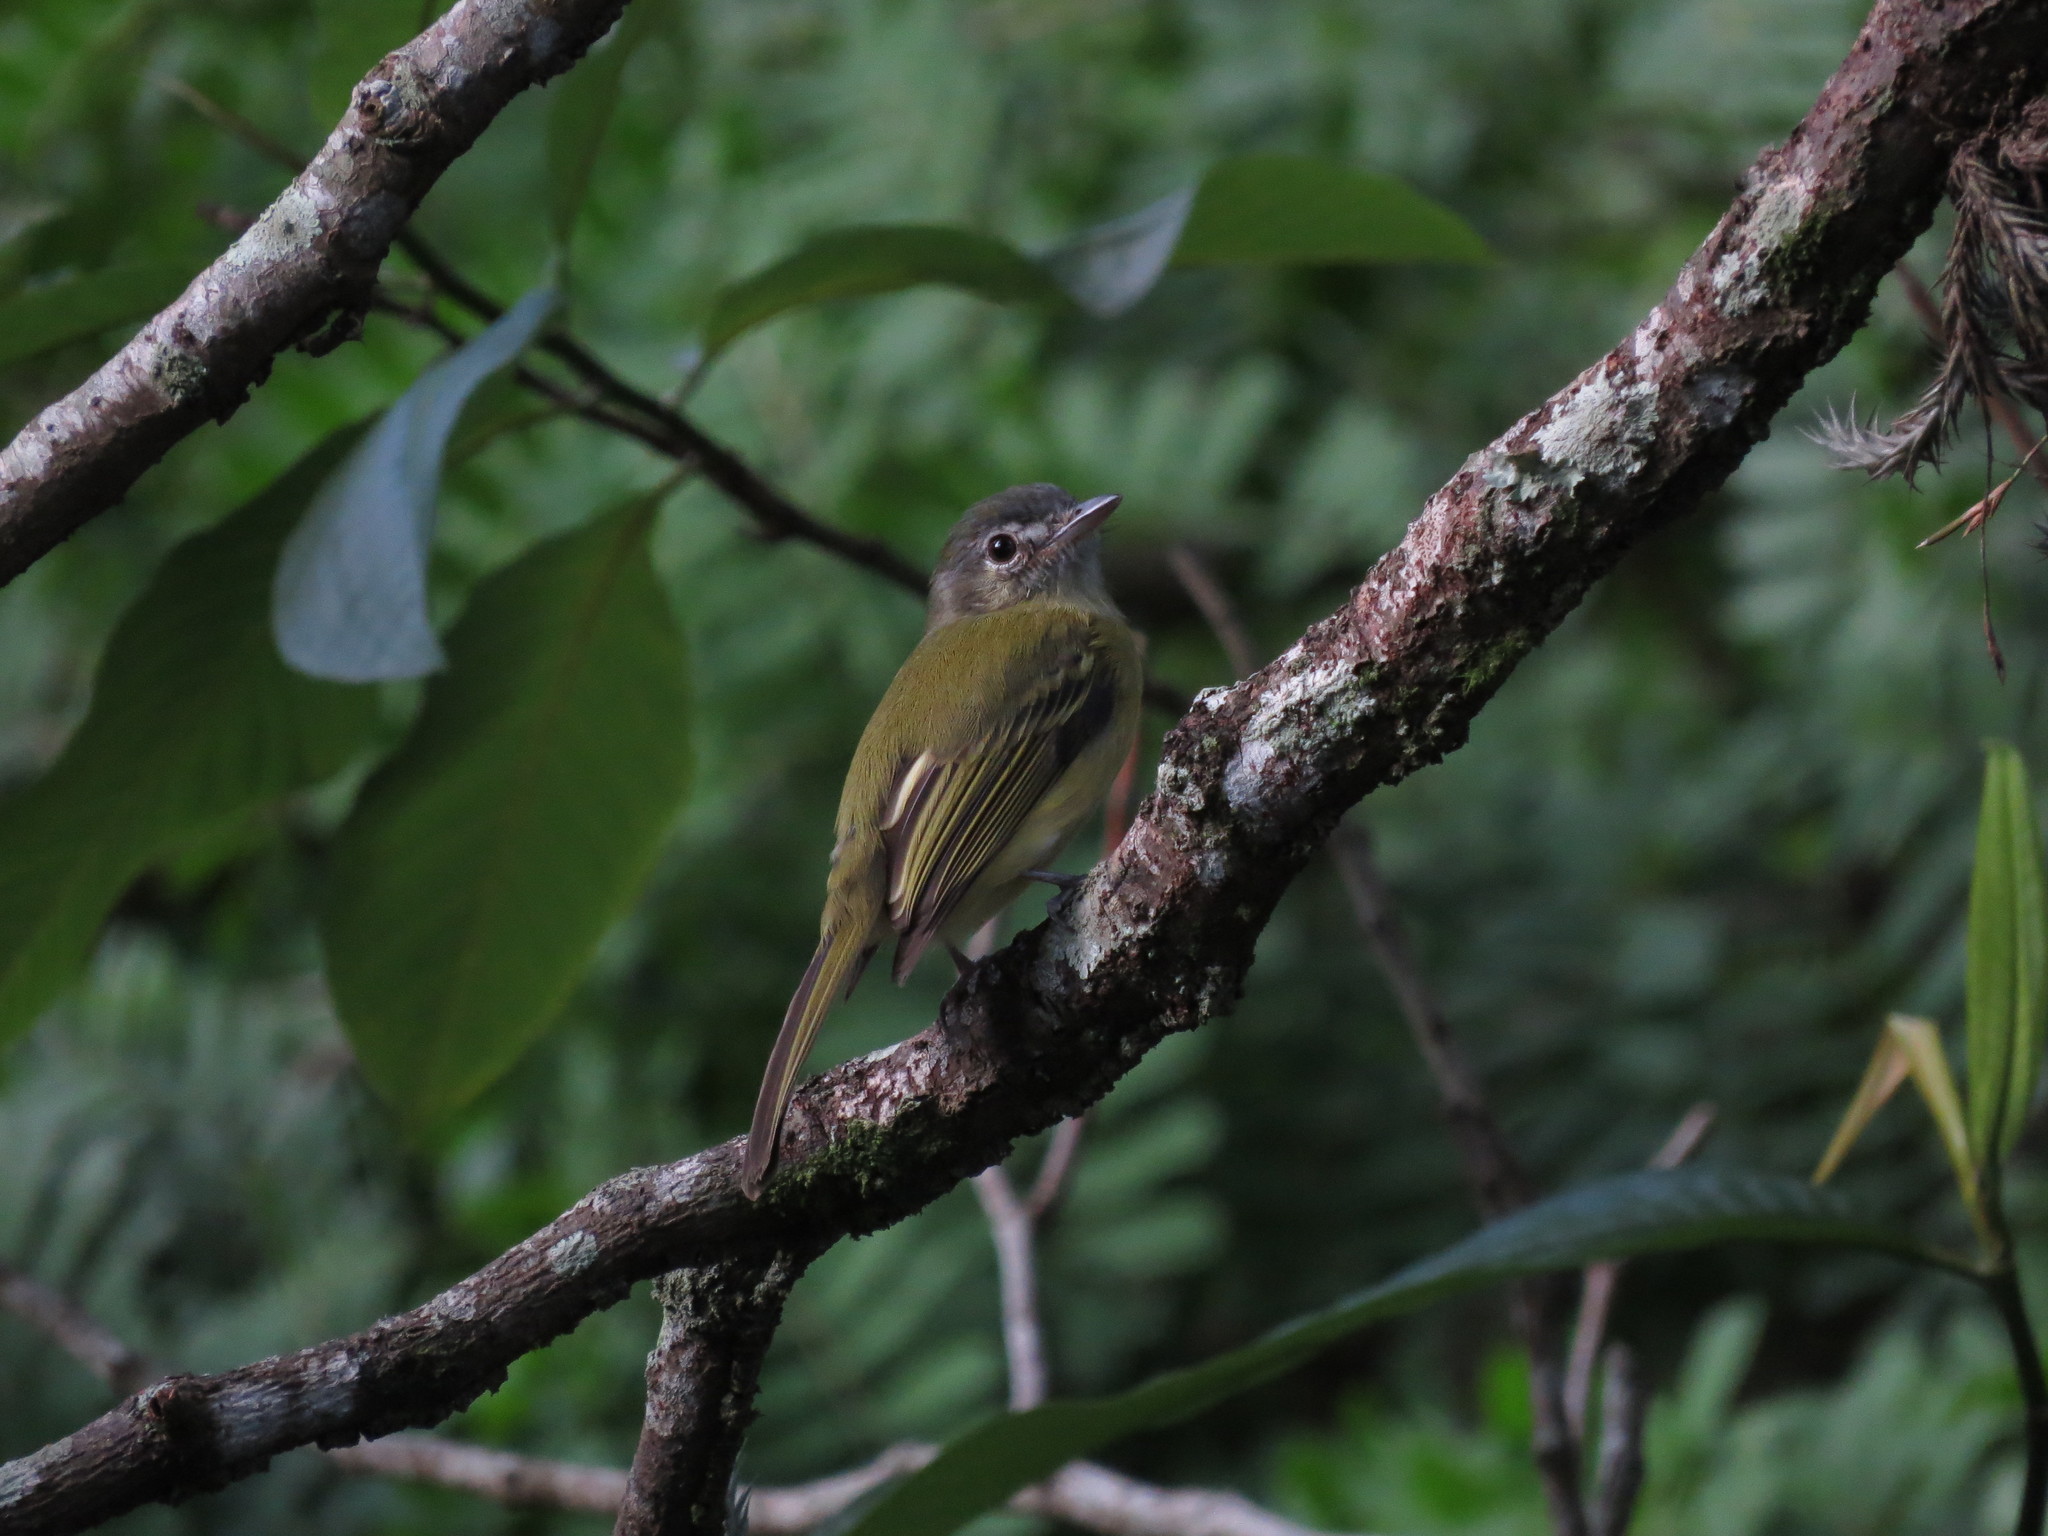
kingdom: Animalia
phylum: Chordata
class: Aves
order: Passeriformes
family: Tyrannidae
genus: Tolmomyias
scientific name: Tolmomyias sulphurescens
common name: Yellow-olive flycatcher
